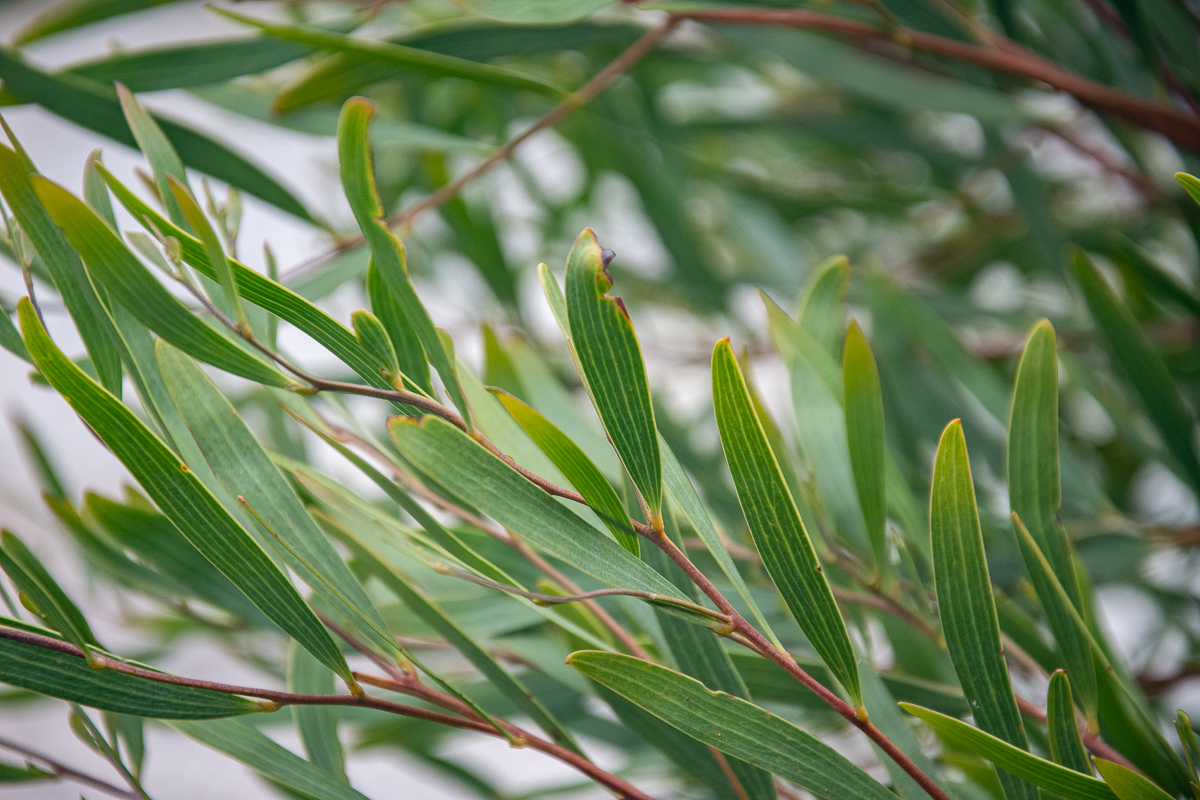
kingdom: Plantae
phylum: Tracheophyta
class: Magnoliopsida
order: Fabales
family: Fabaceae
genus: Acacia
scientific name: Acacia cyclops
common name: Coastal wattle
